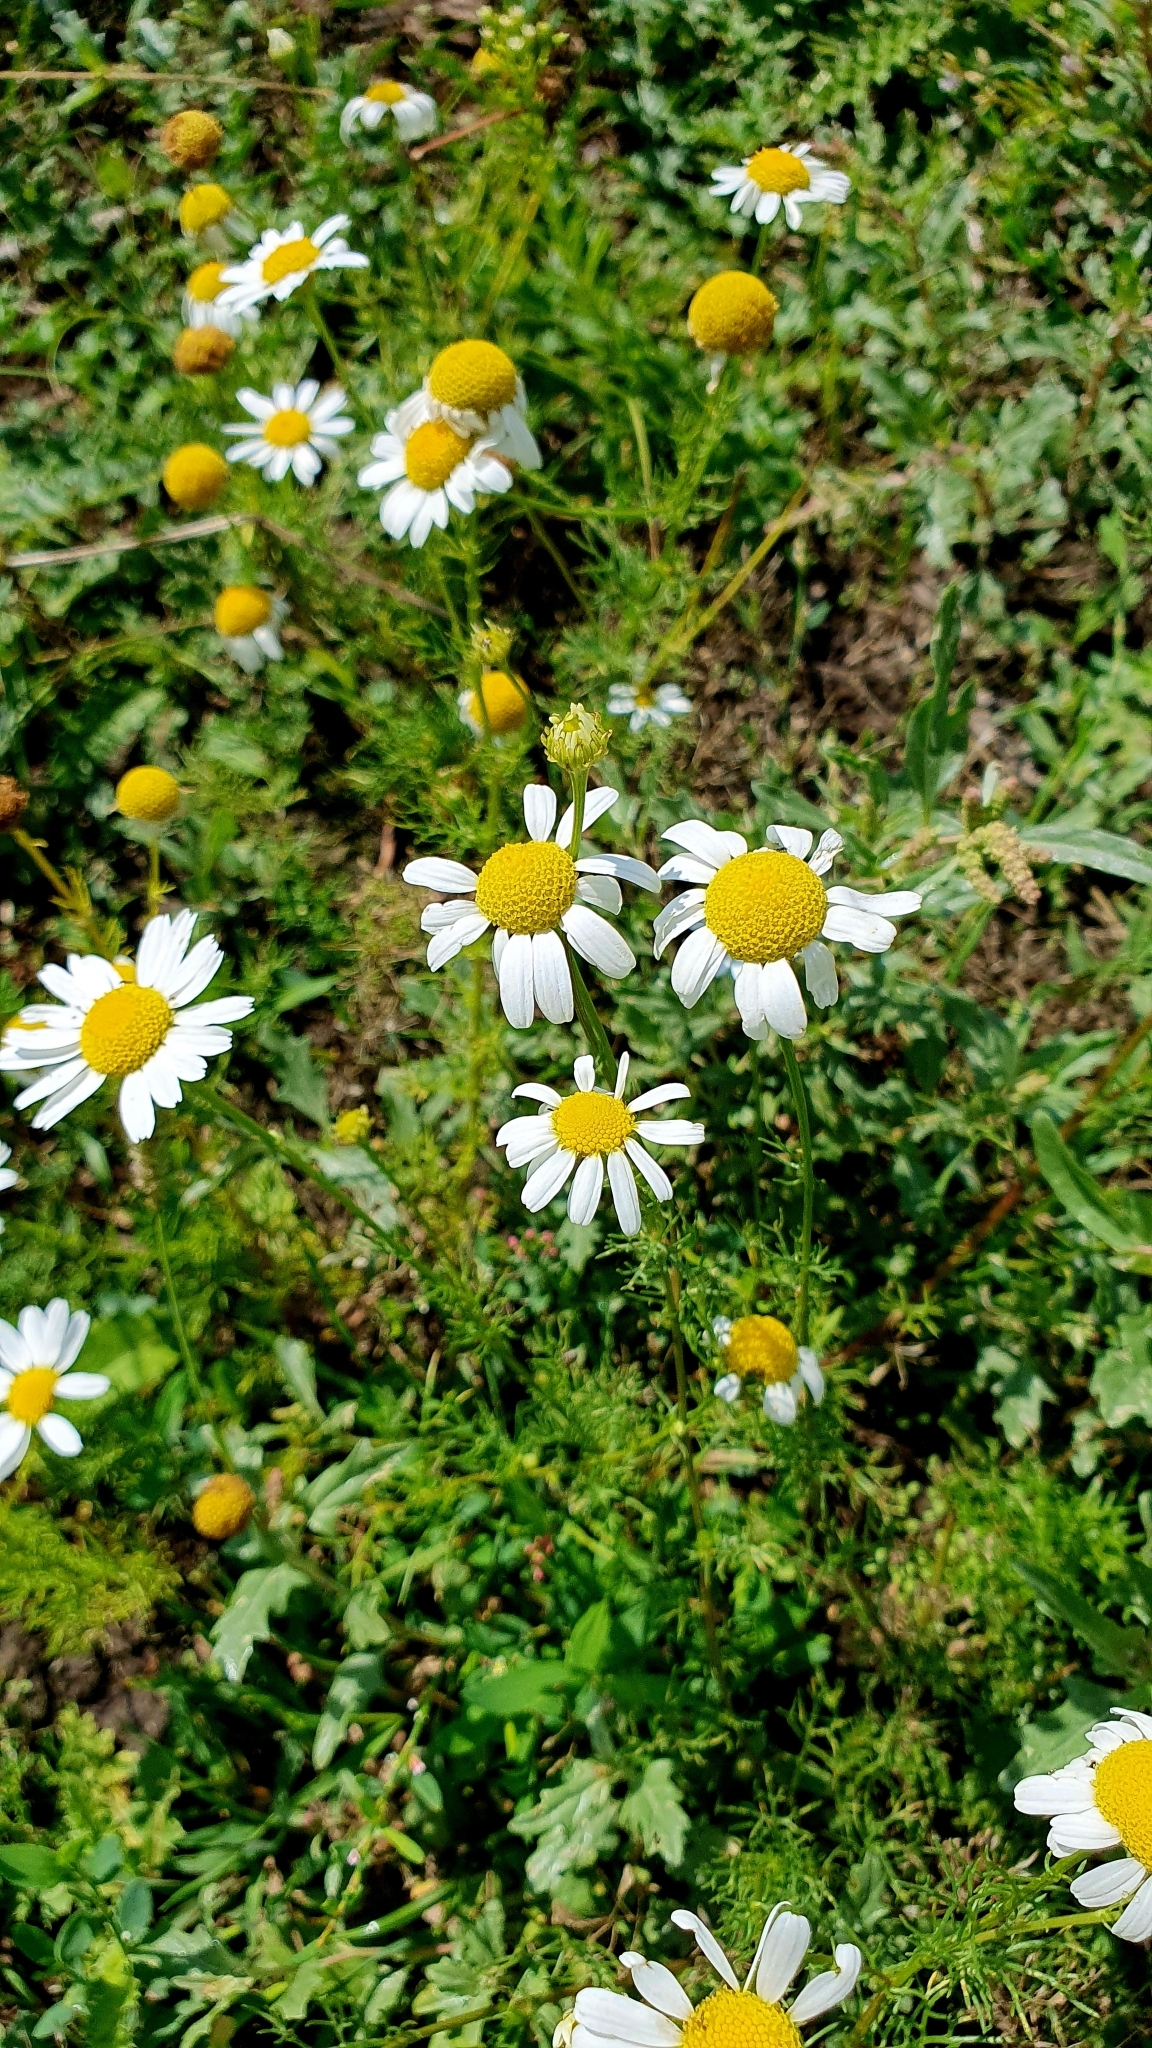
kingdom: Plantae
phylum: Tracheophyta
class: Magnoliopsida
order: Asterales
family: Asteraceae
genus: Tripleurospermum
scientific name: Tripleurospermum inodorum
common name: Scentless mayweed
